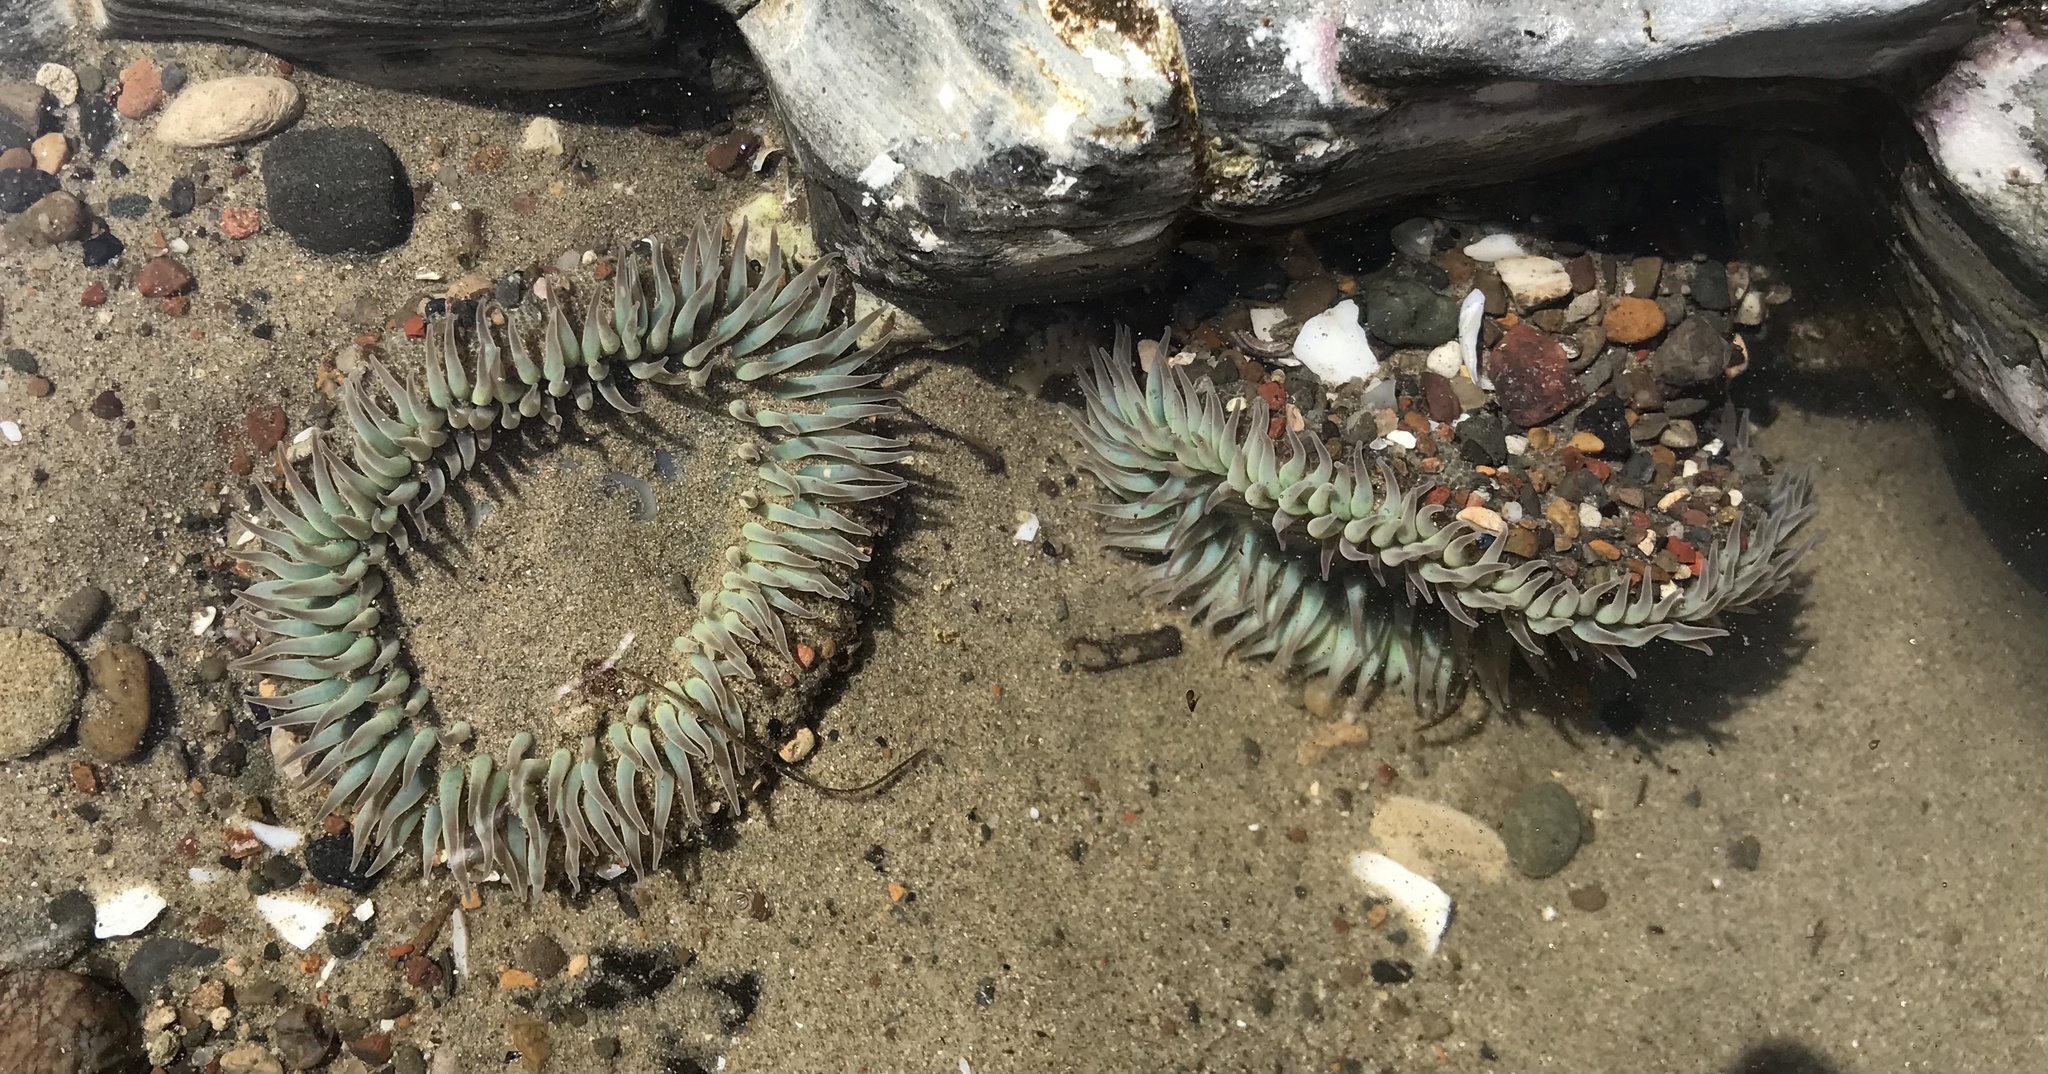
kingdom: Animalia
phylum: Cnidaria
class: Anthozoa
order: Actiniaria
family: Actiniidae
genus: Anthopleura
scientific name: Anthopleura sola
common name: Sun anemone
